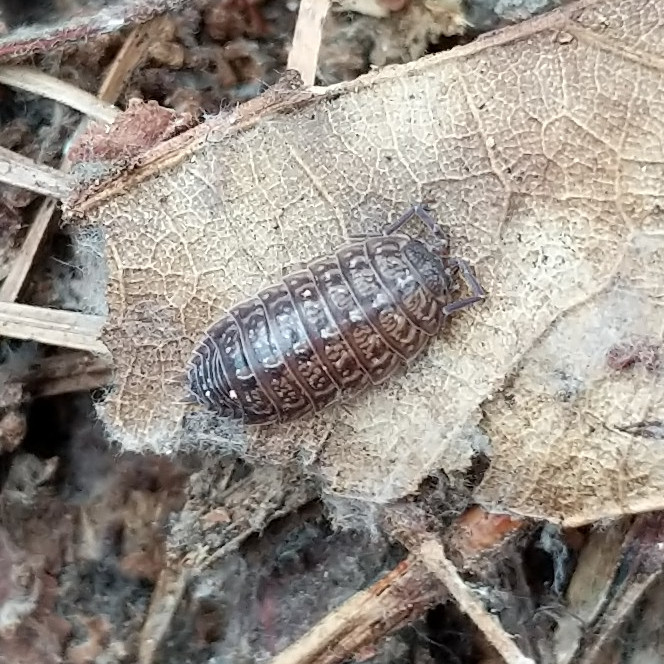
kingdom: Animalia
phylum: Arthropoda
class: Malacostraca
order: Isopoda
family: Porcellionidae
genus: Porcellionides
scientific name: Porcellionides virgatus
